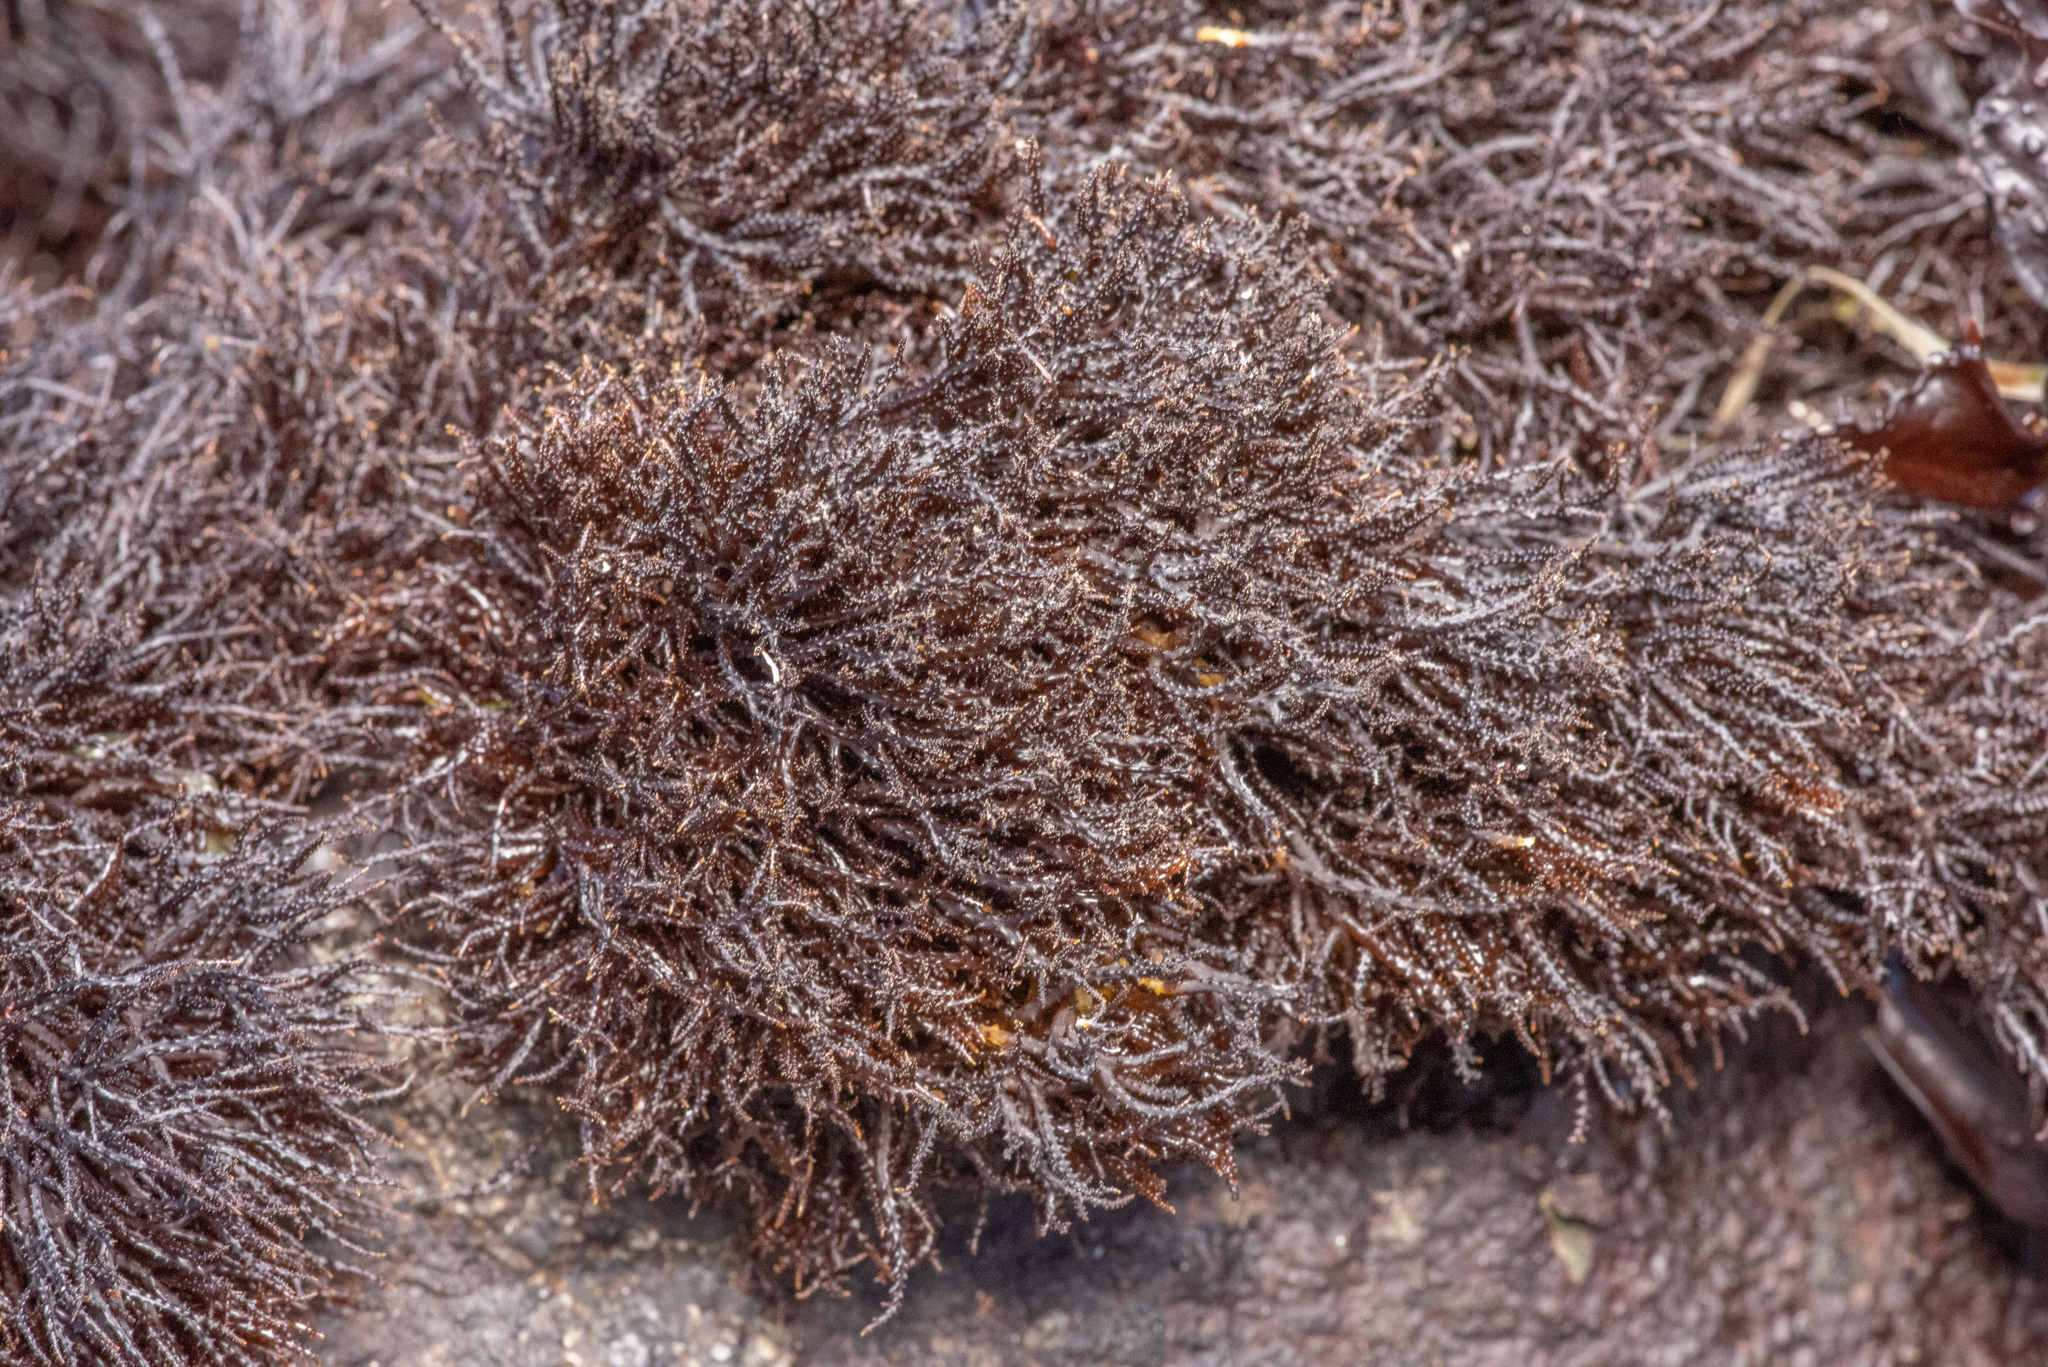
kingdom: Plantae
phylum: Rhodophyta
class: Florideophyceae
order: Gigartinales
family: Endocladiaceae
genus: Endocladia
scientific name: Endocladia muricata
